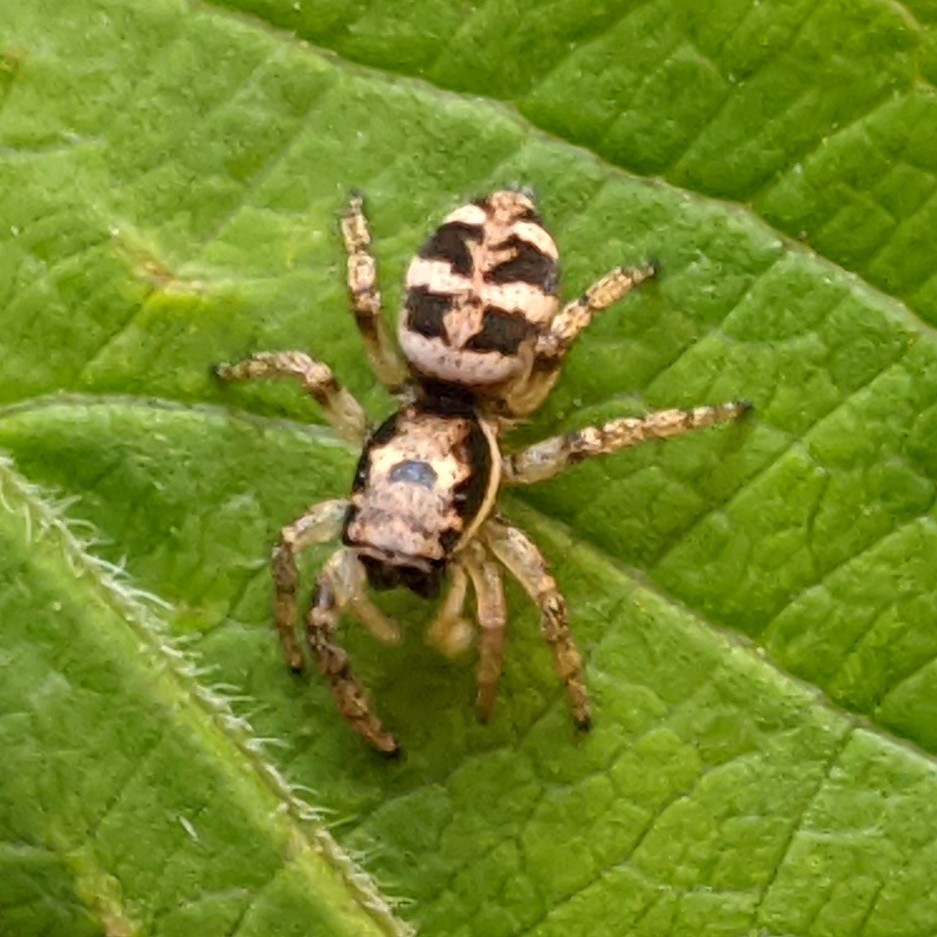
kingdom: Animalia
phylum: Arthropoda
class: Arachnida
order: Araneae
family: Salticidae
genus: Salticus
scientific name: Salticus scenicus
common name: Zebra jumper
